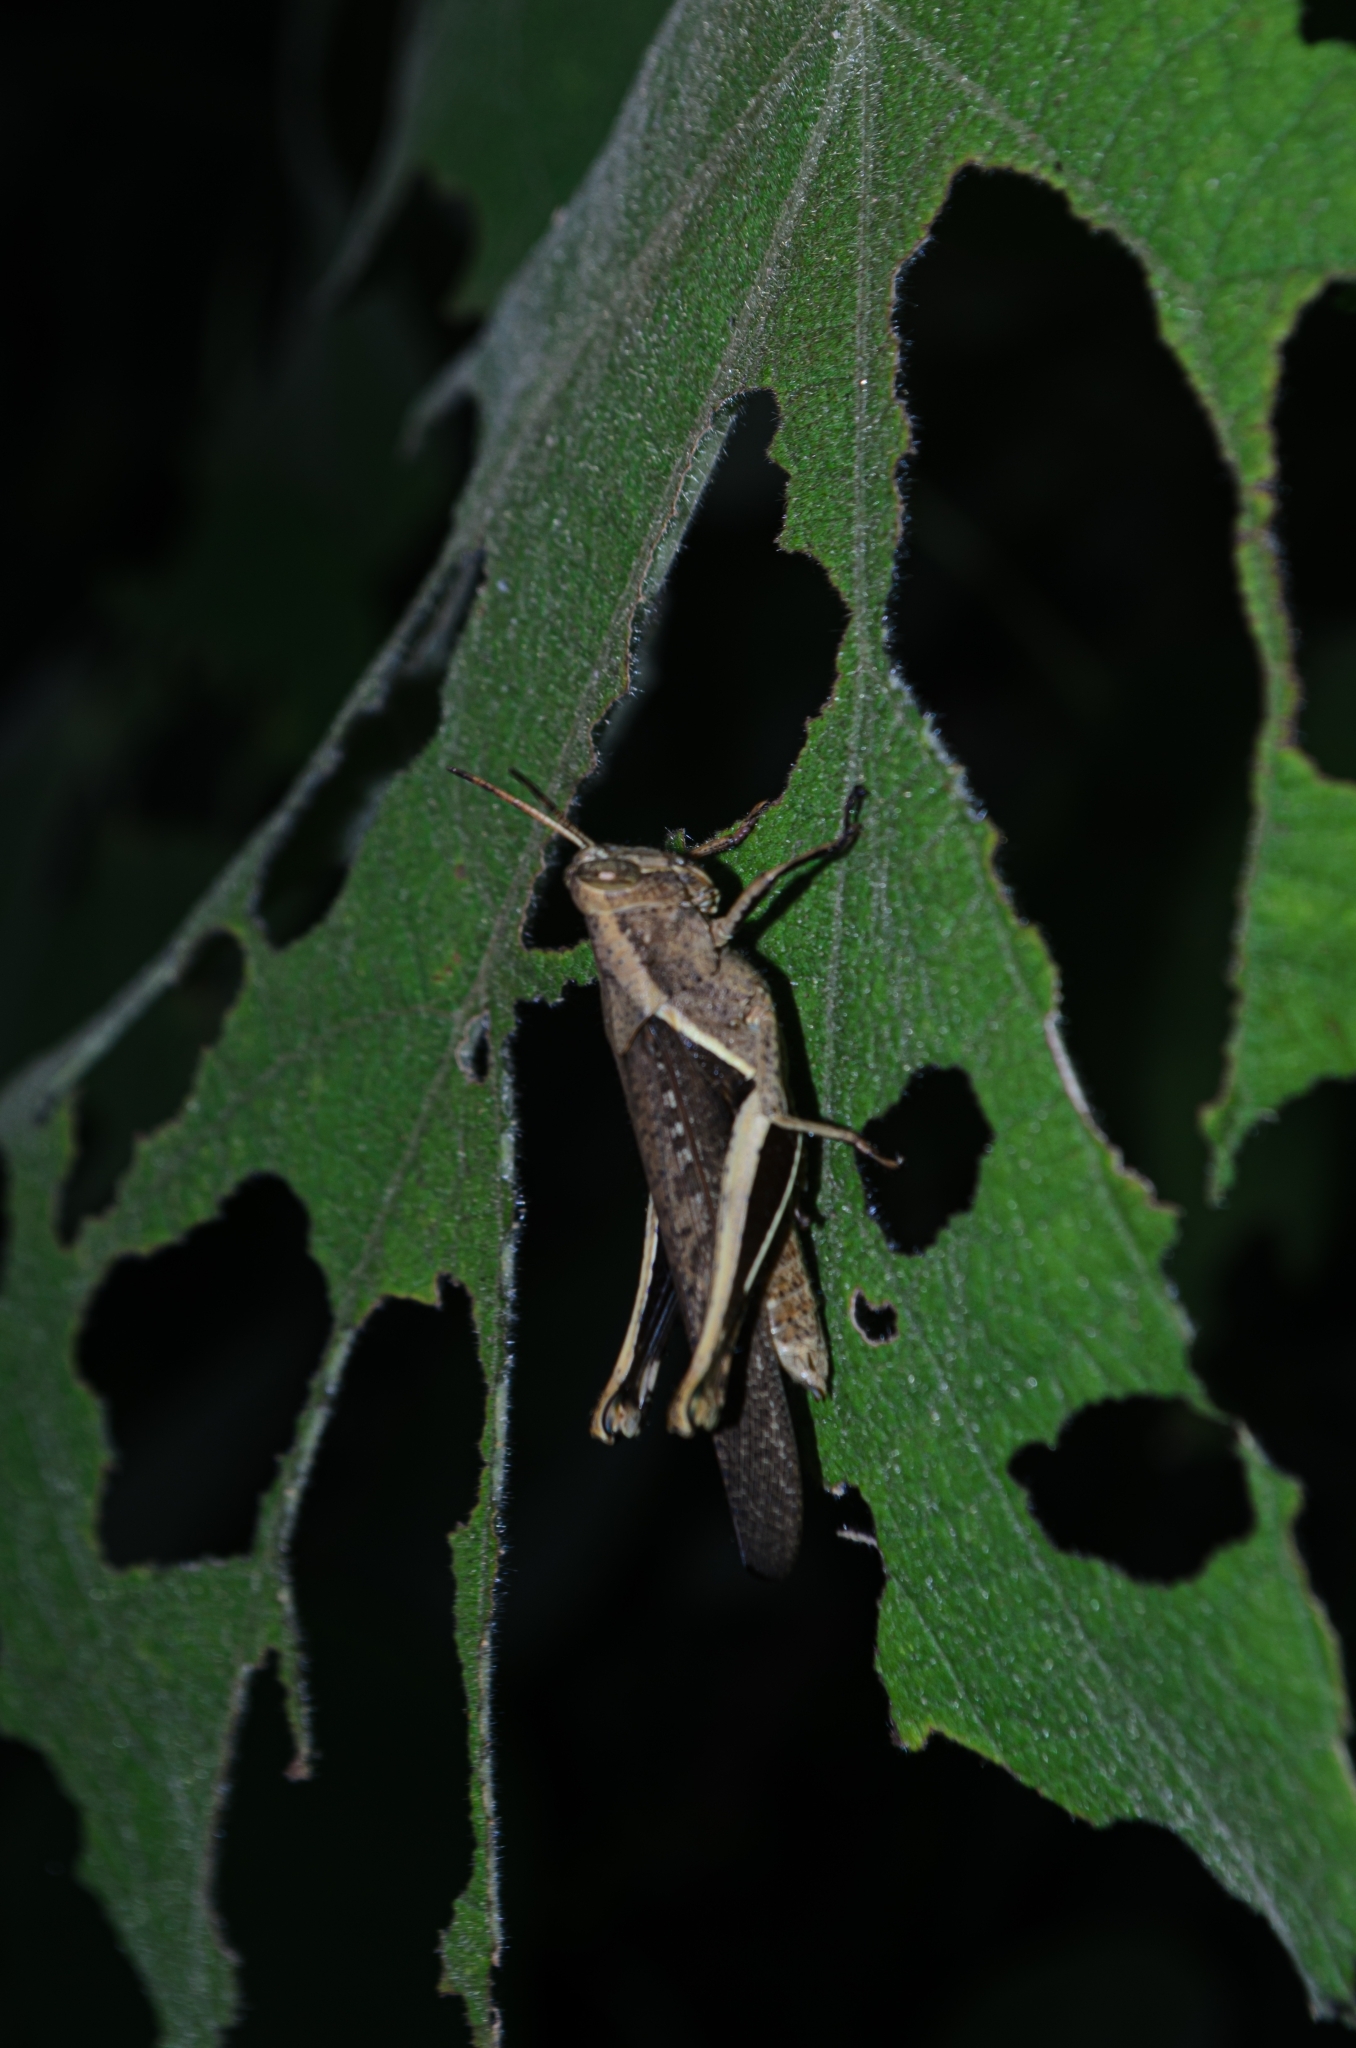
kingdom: Animalia
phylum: Arthropoda
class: Insecta
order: Orthoptera
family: Acrididae
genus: Abracris
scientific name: Abracris flavolineata
